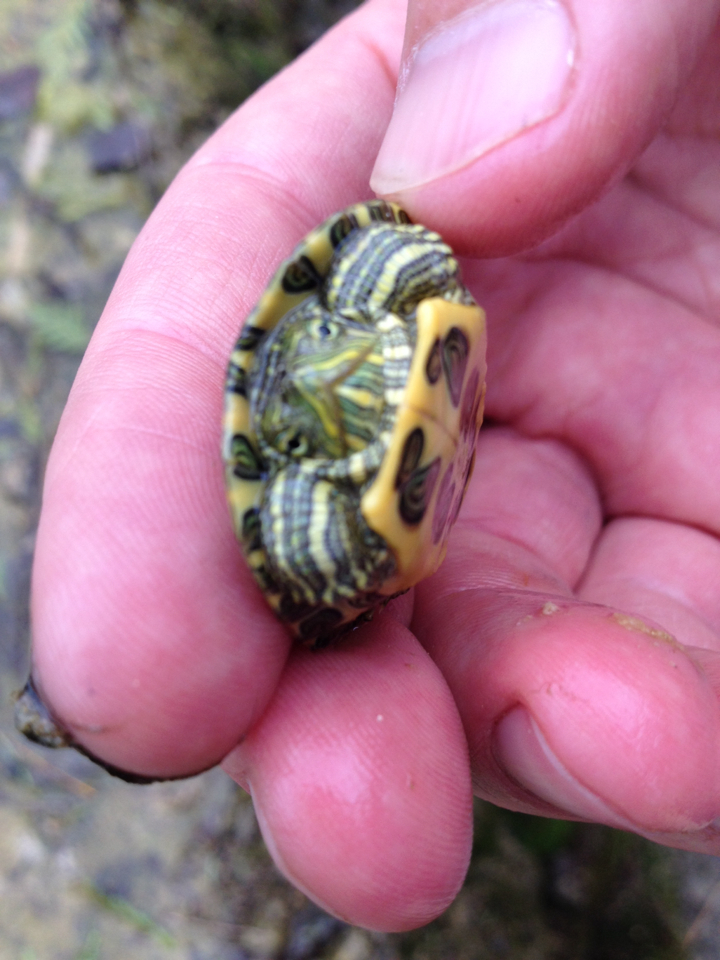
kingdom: Animalia
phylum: Chordata
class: Testudines
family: Emydidae
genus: Trachemys
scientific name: Trachemys scripta
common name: Slider
